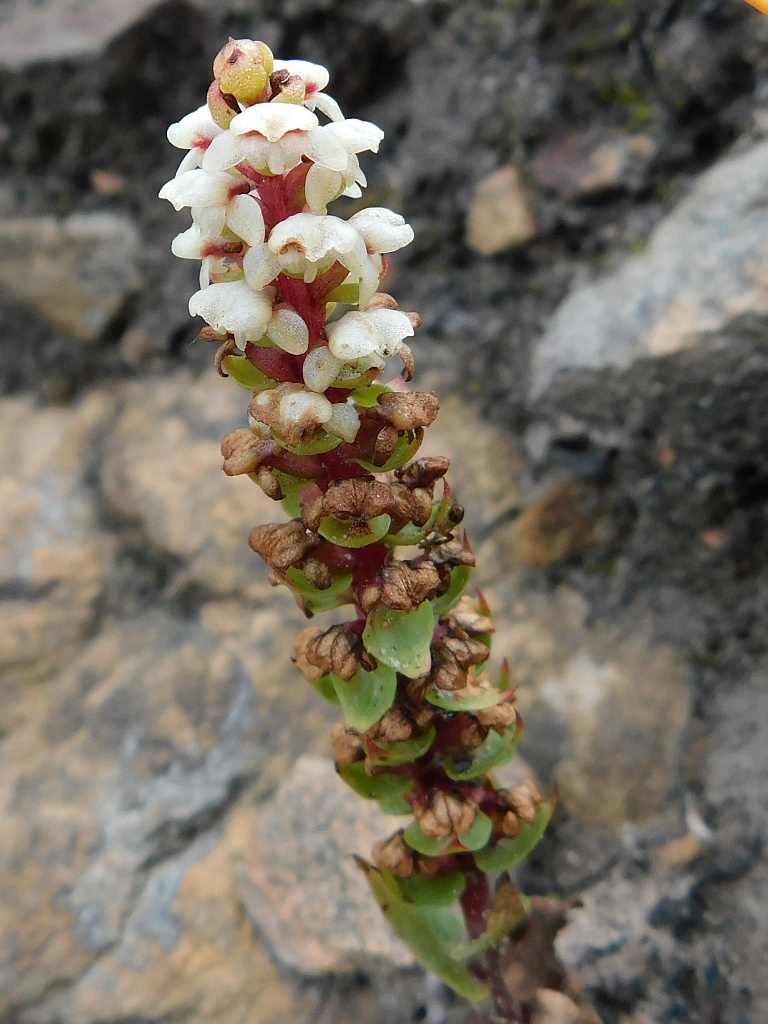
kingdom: Plantae
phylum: Tracheophyta
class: Liliopsida
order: Asparagales
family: Orchidaceae
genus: Satyrium
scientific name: Satyrium bicallosum
